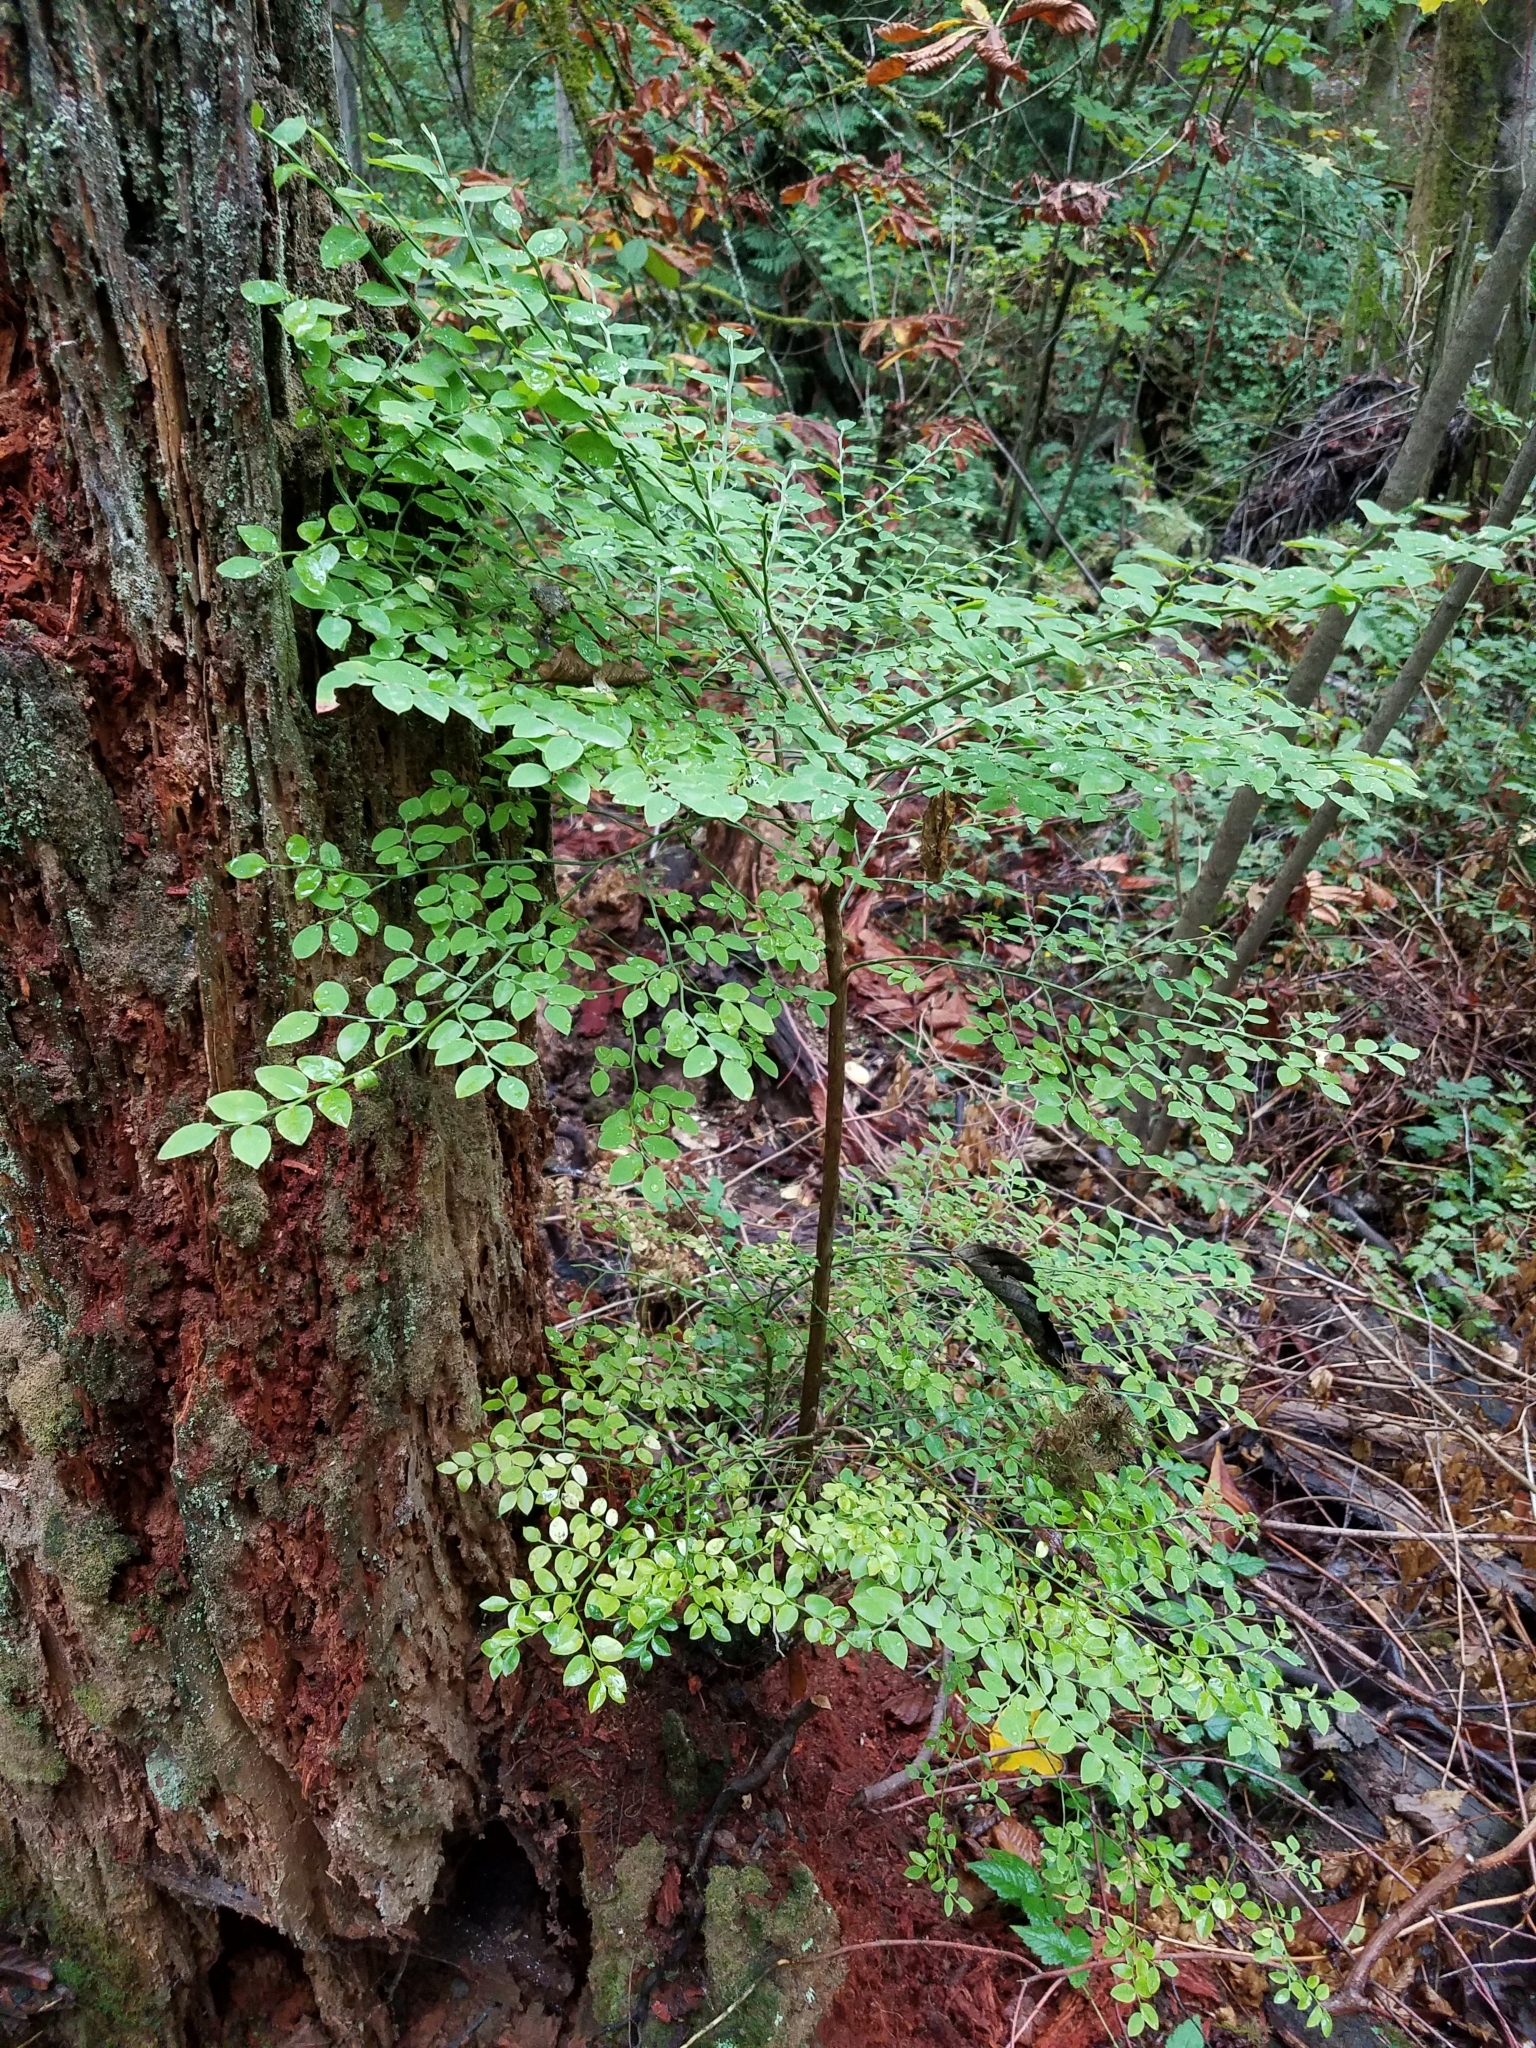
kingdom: Plantae
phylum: Tracheophyta
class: Magnoliopsida
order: Ericales
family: Ericaceae
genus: Vaccinium
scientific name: Vaccinium parvifolium
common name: Red-huckleberry
